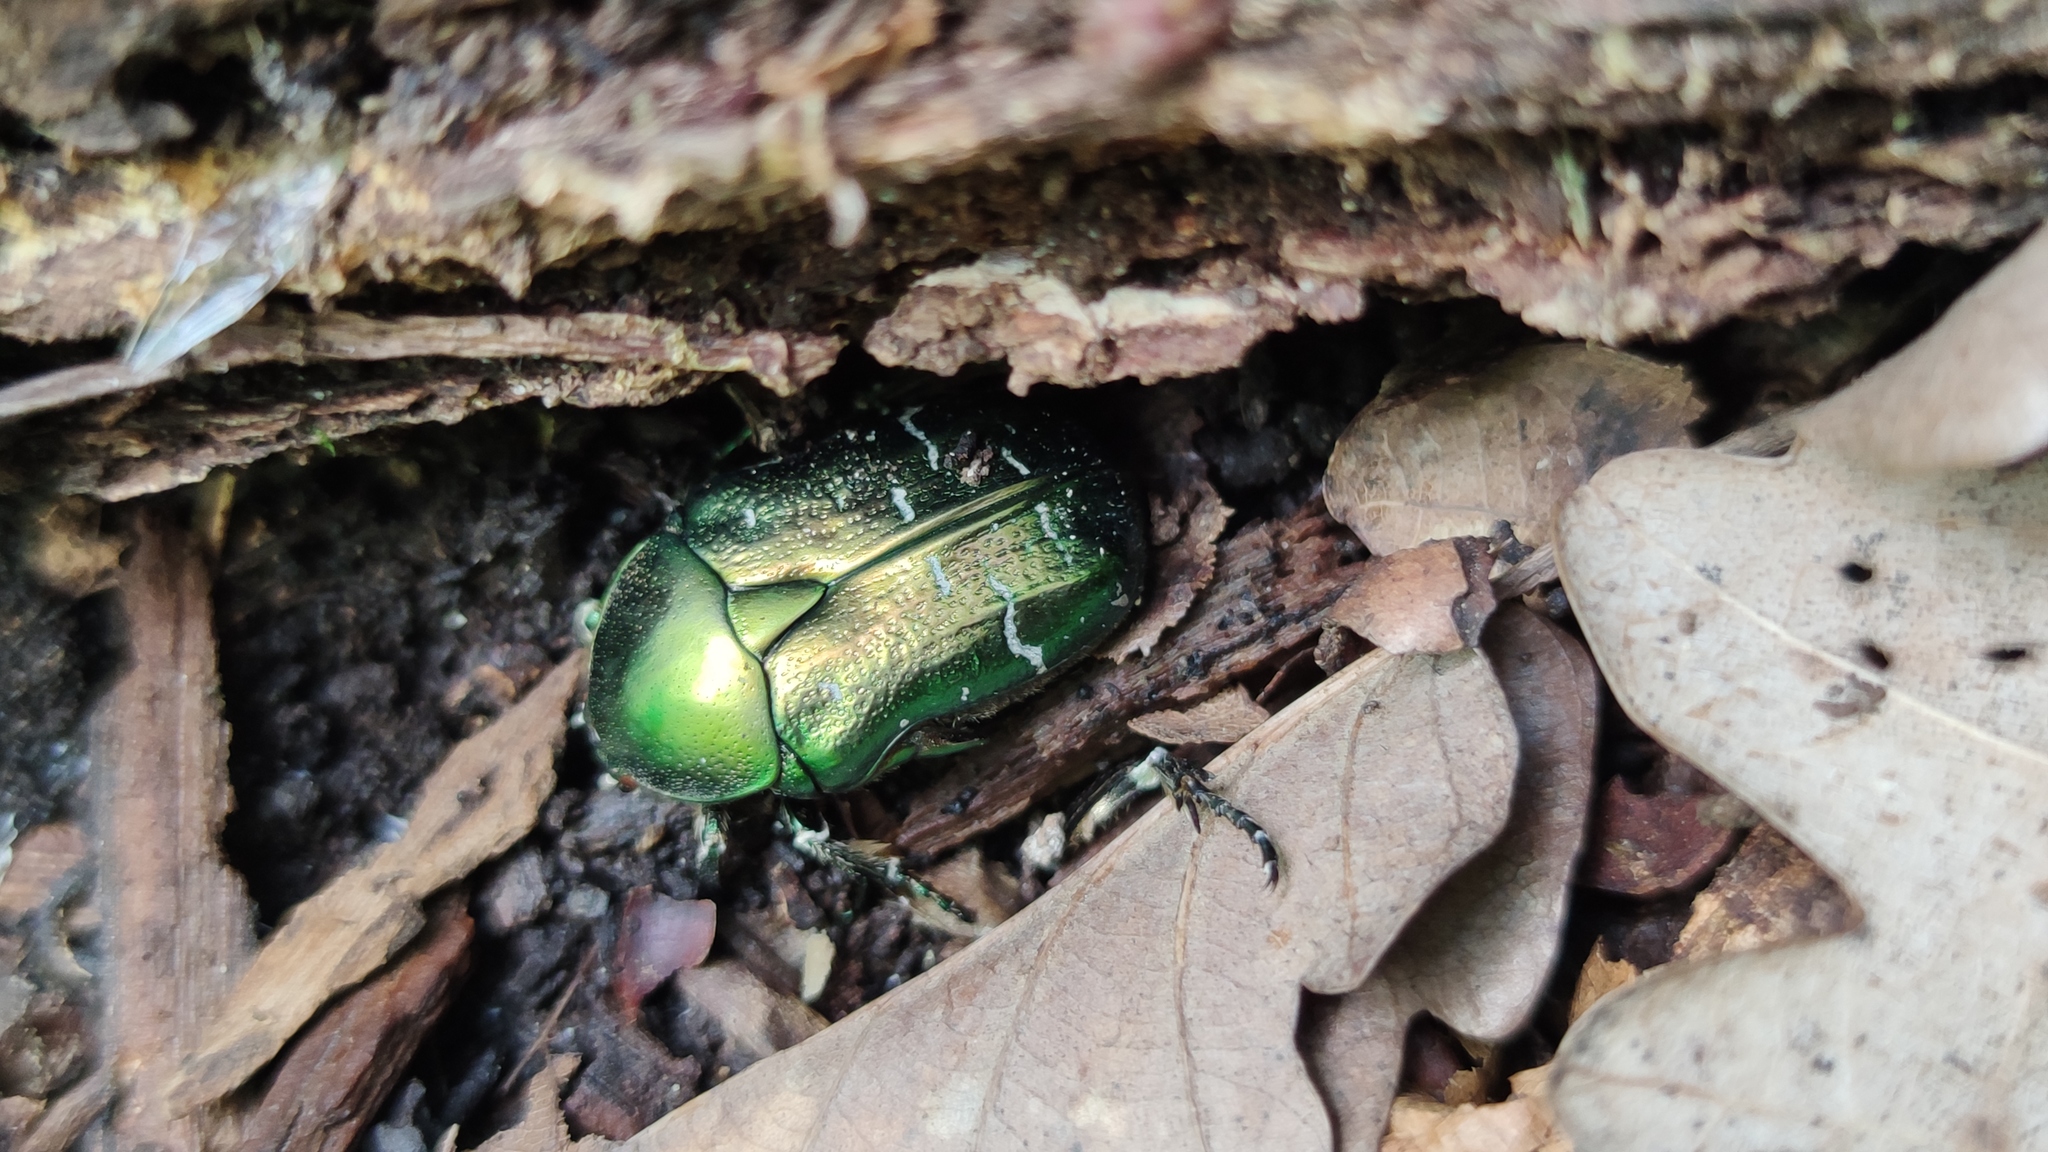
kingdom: Animalia
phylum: Arthropoda
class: Insecta
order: Coleoptera
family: Scarabaeidae
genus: Cetonia
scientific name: Cetonia aurata
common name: Rose chafer
